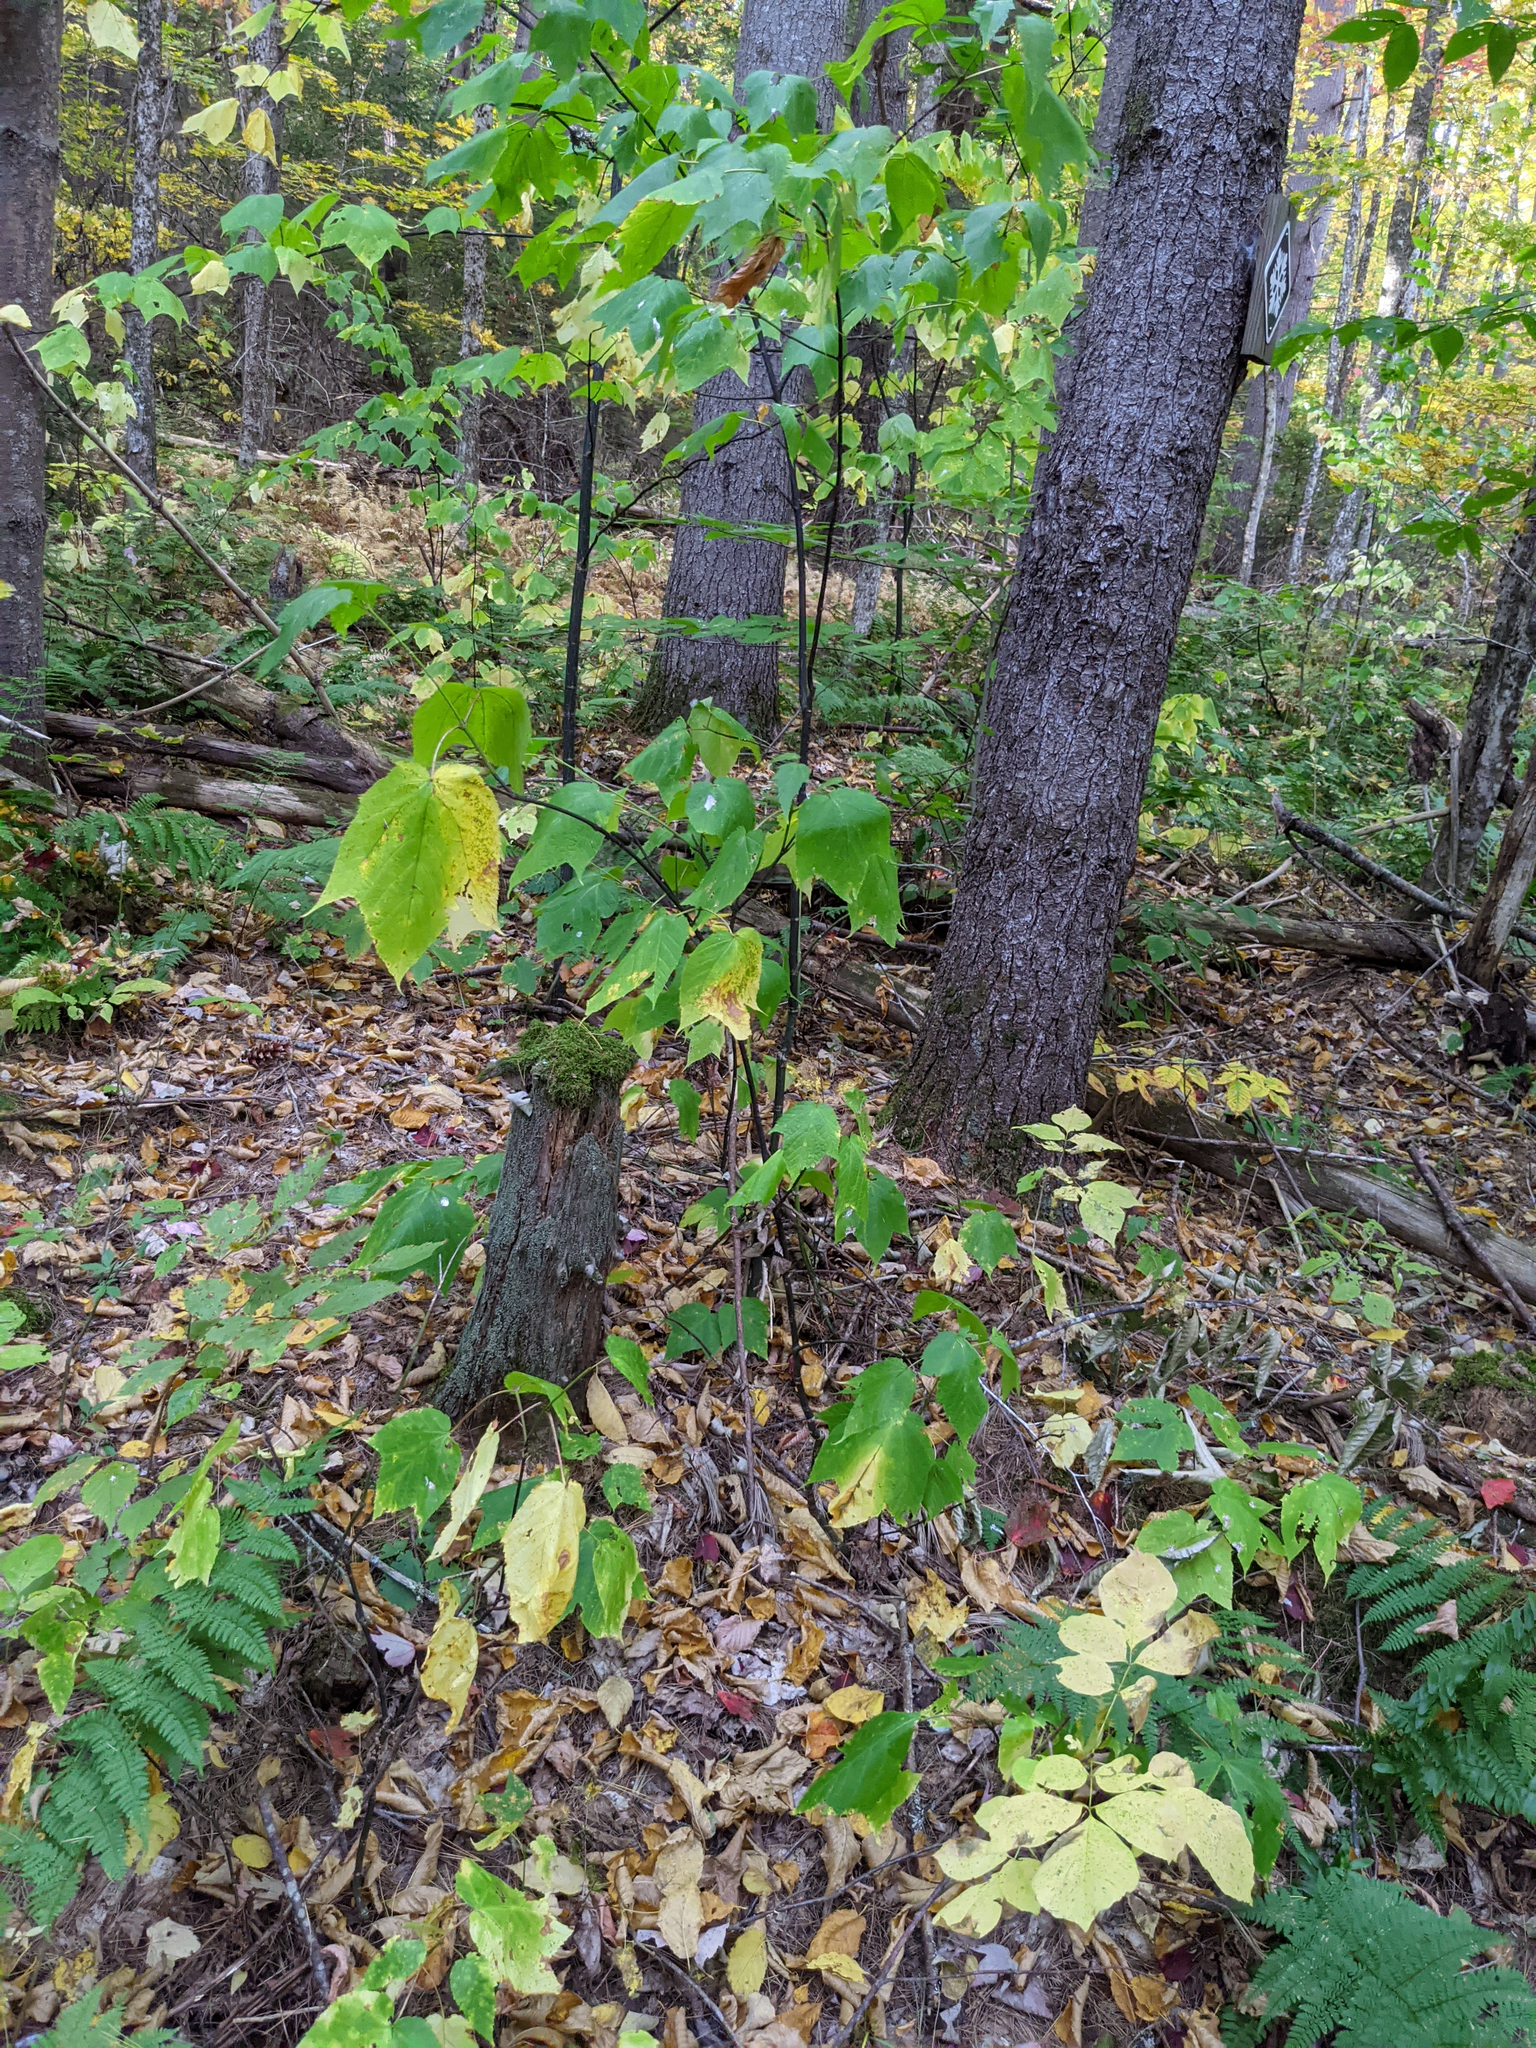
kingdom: Plantae
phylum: Tracheophyta
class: Magnoliopsida
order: Sapindales
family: Sapindaceae
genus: Acer
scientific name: Acer pensylvanicum
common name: Moosewood
